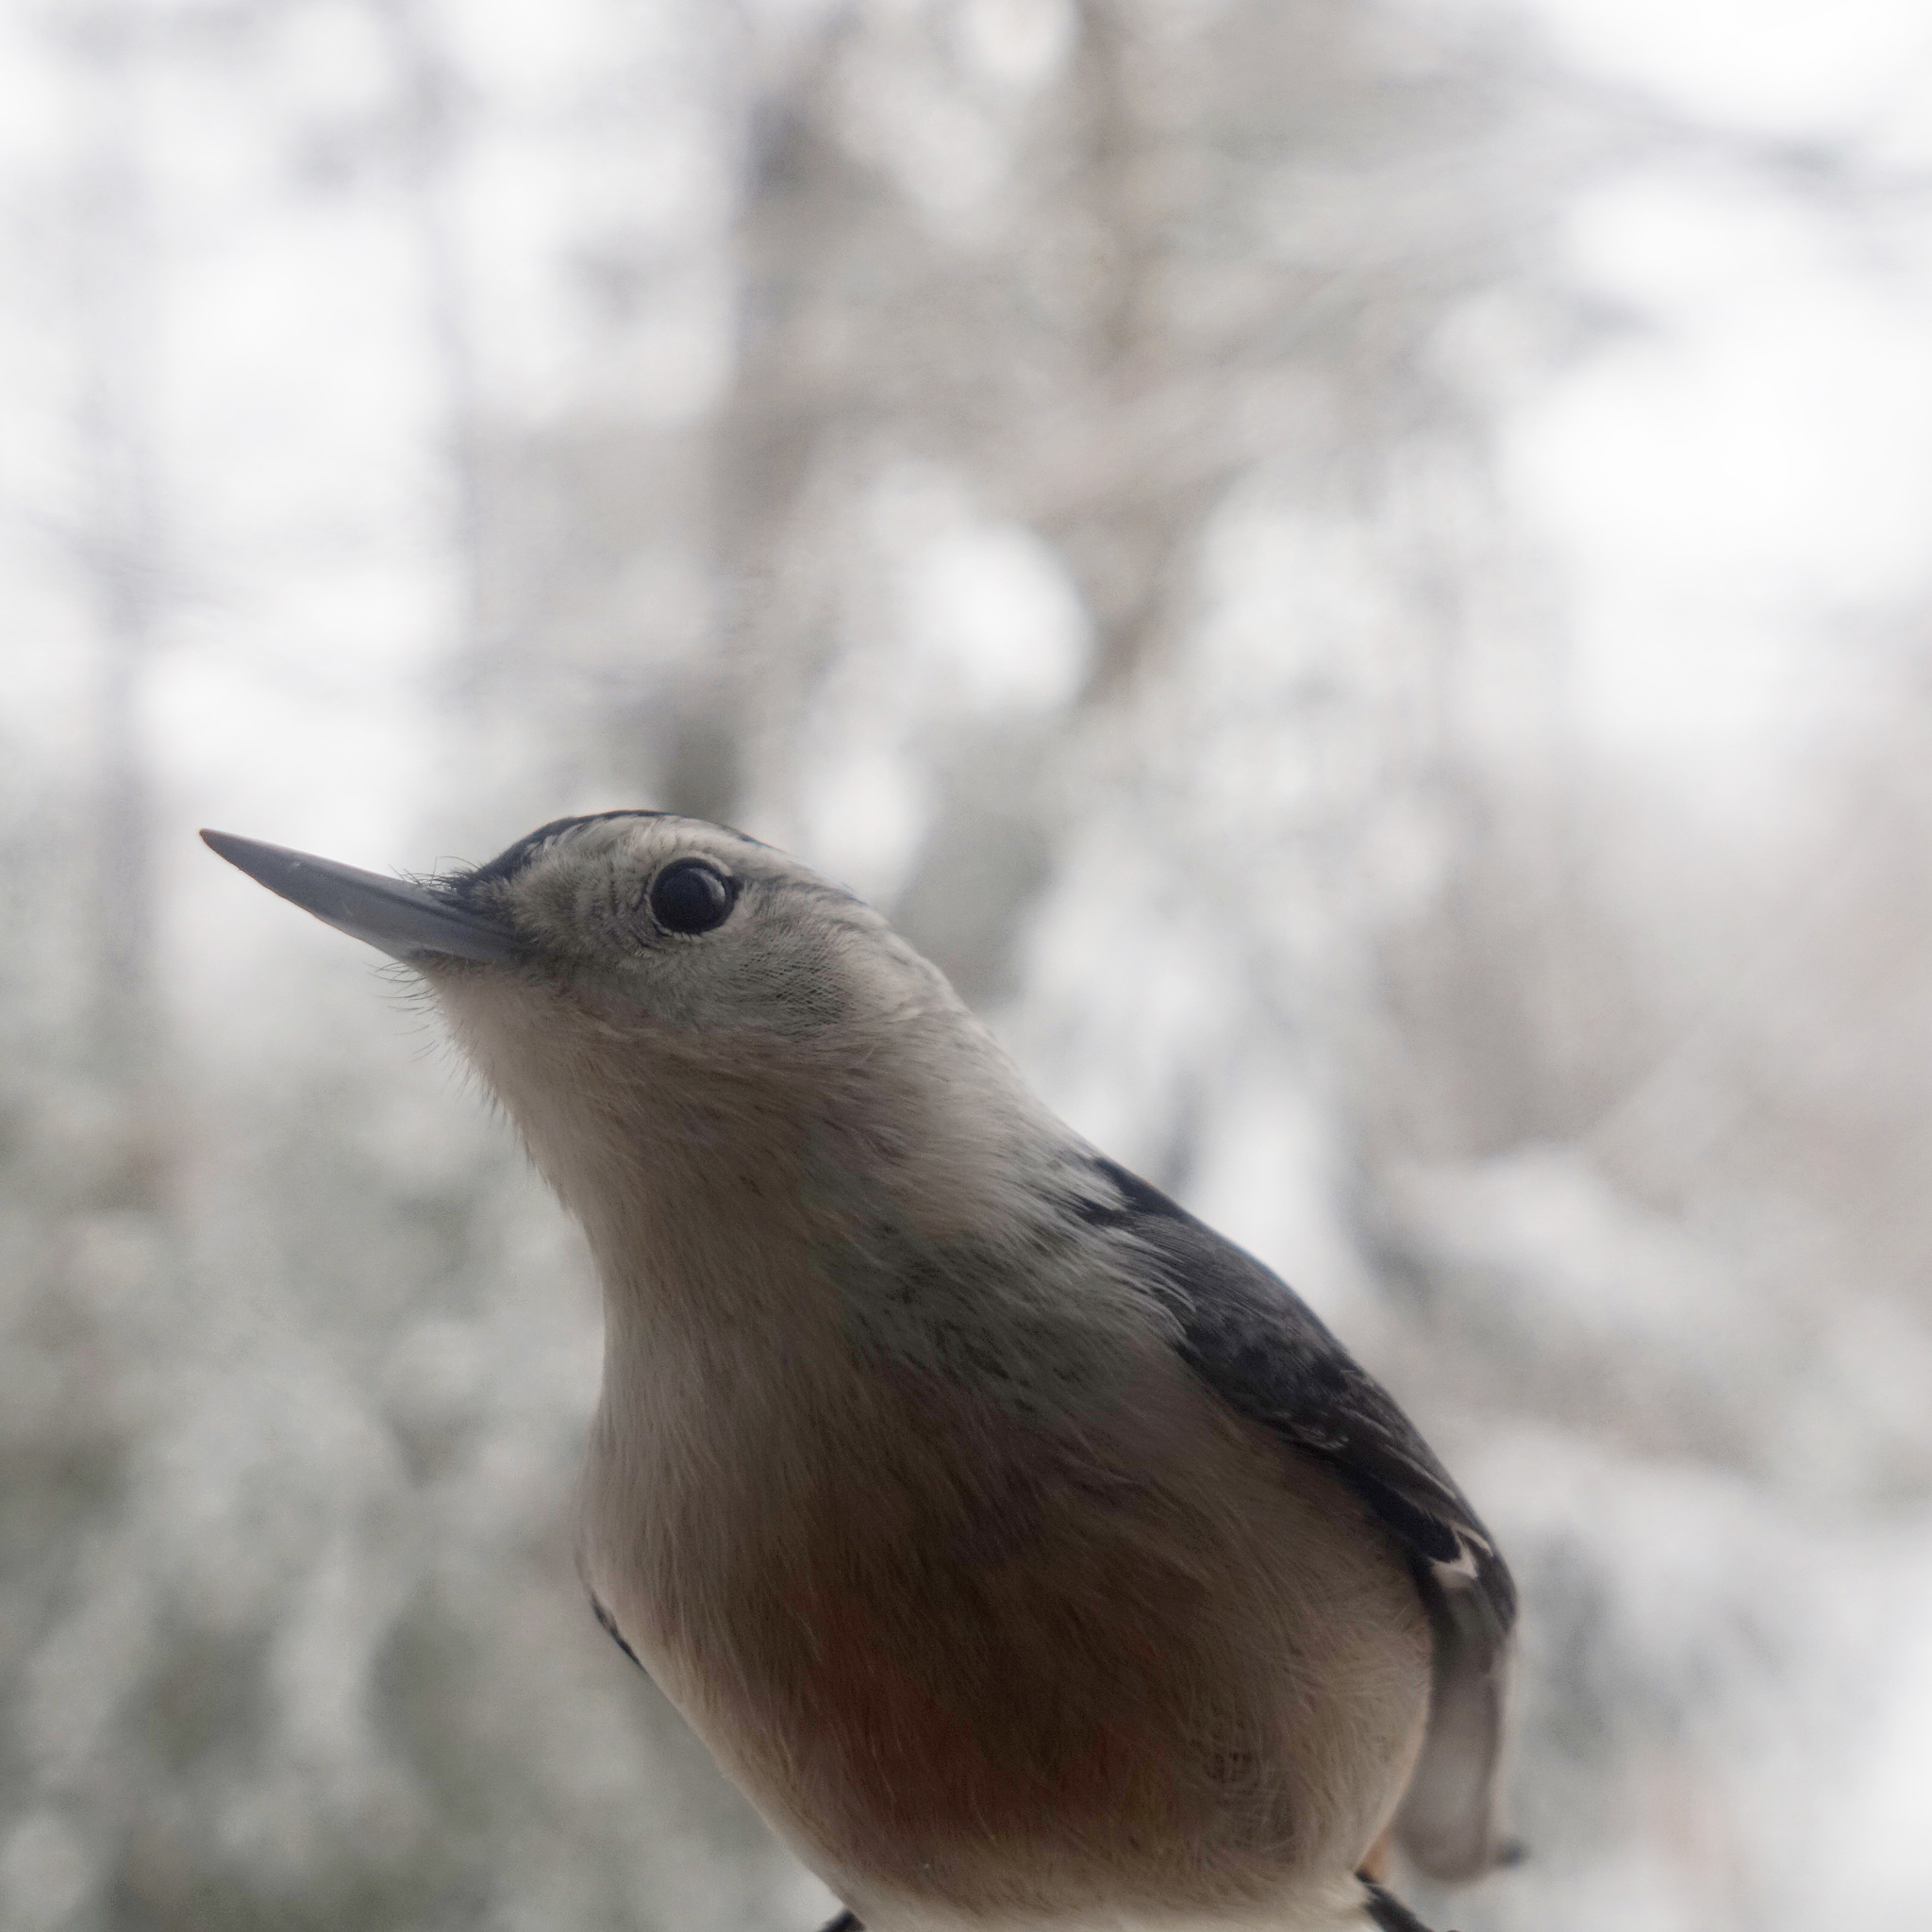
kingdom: Animalia
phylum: Chordata
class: Aves
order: Passeriformes
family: Sittidae
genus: Sitta
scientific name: Sitta carolinensis
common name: White-breasted nuthatch
